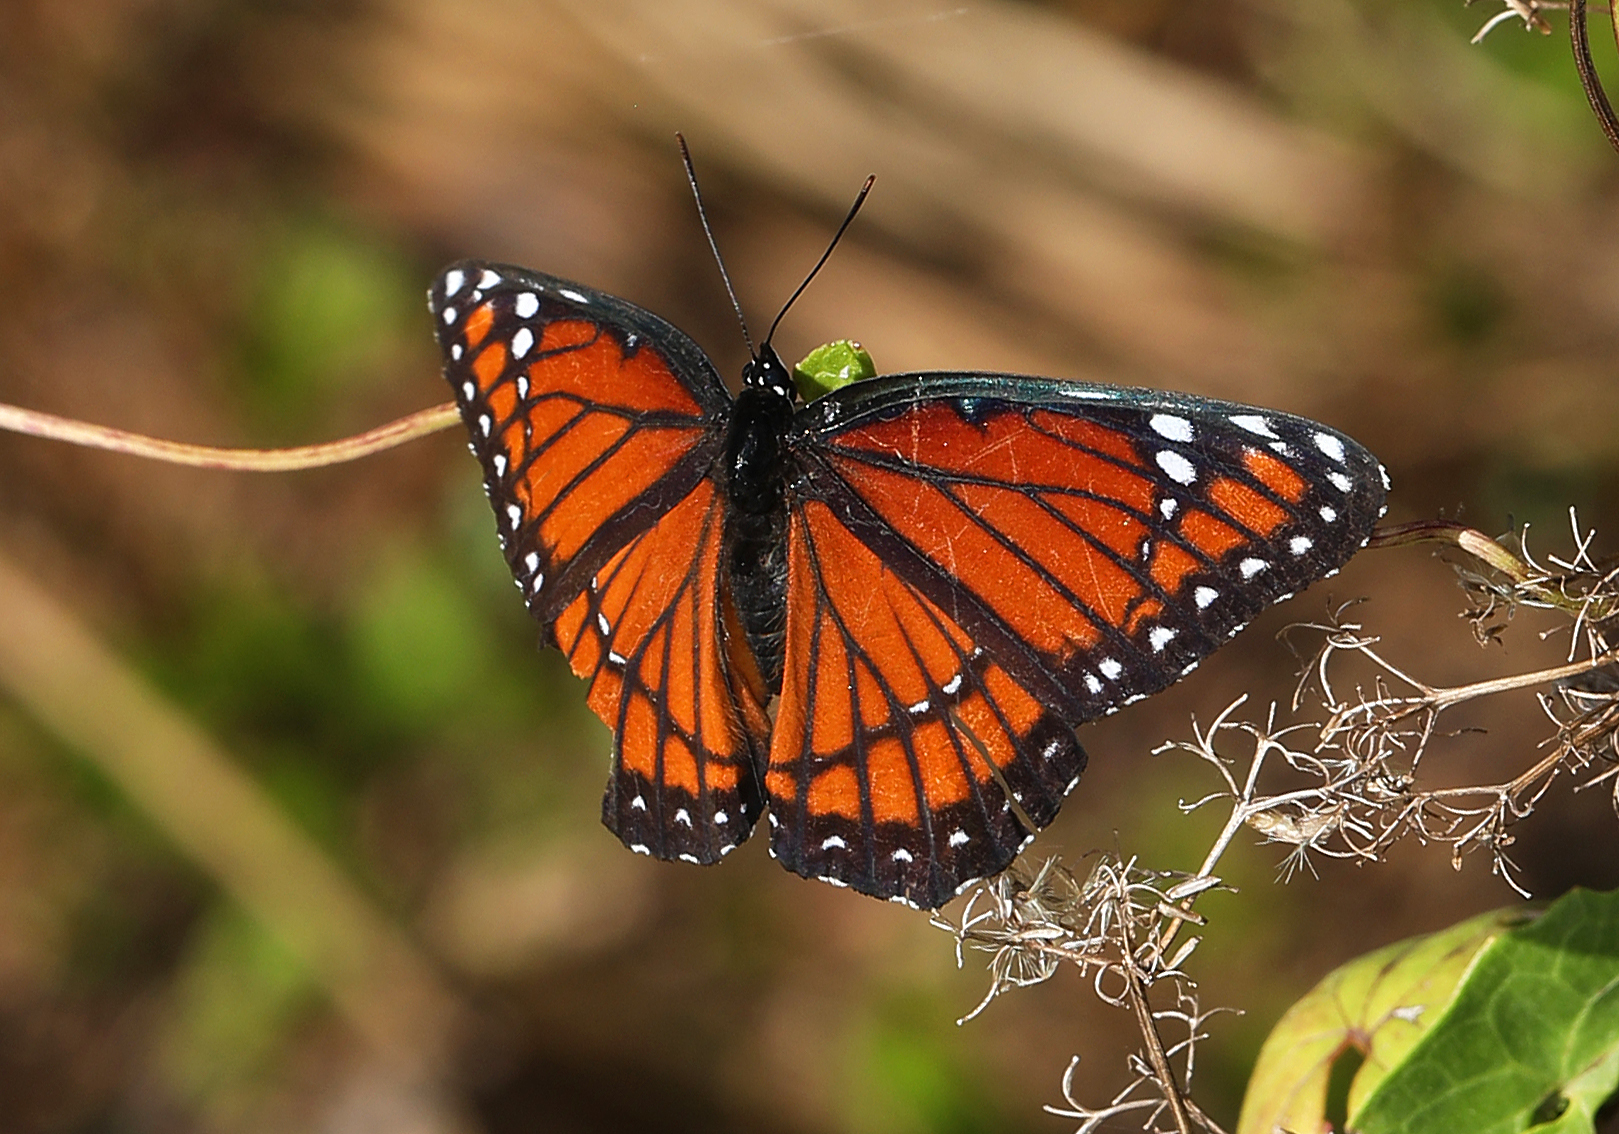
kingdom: Animalia
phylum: Arthropoda
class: Insecta
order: Lepidoptera
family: Nymphalidae
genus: Limenitis
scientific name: Limenitis archippus
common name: Viceroy
